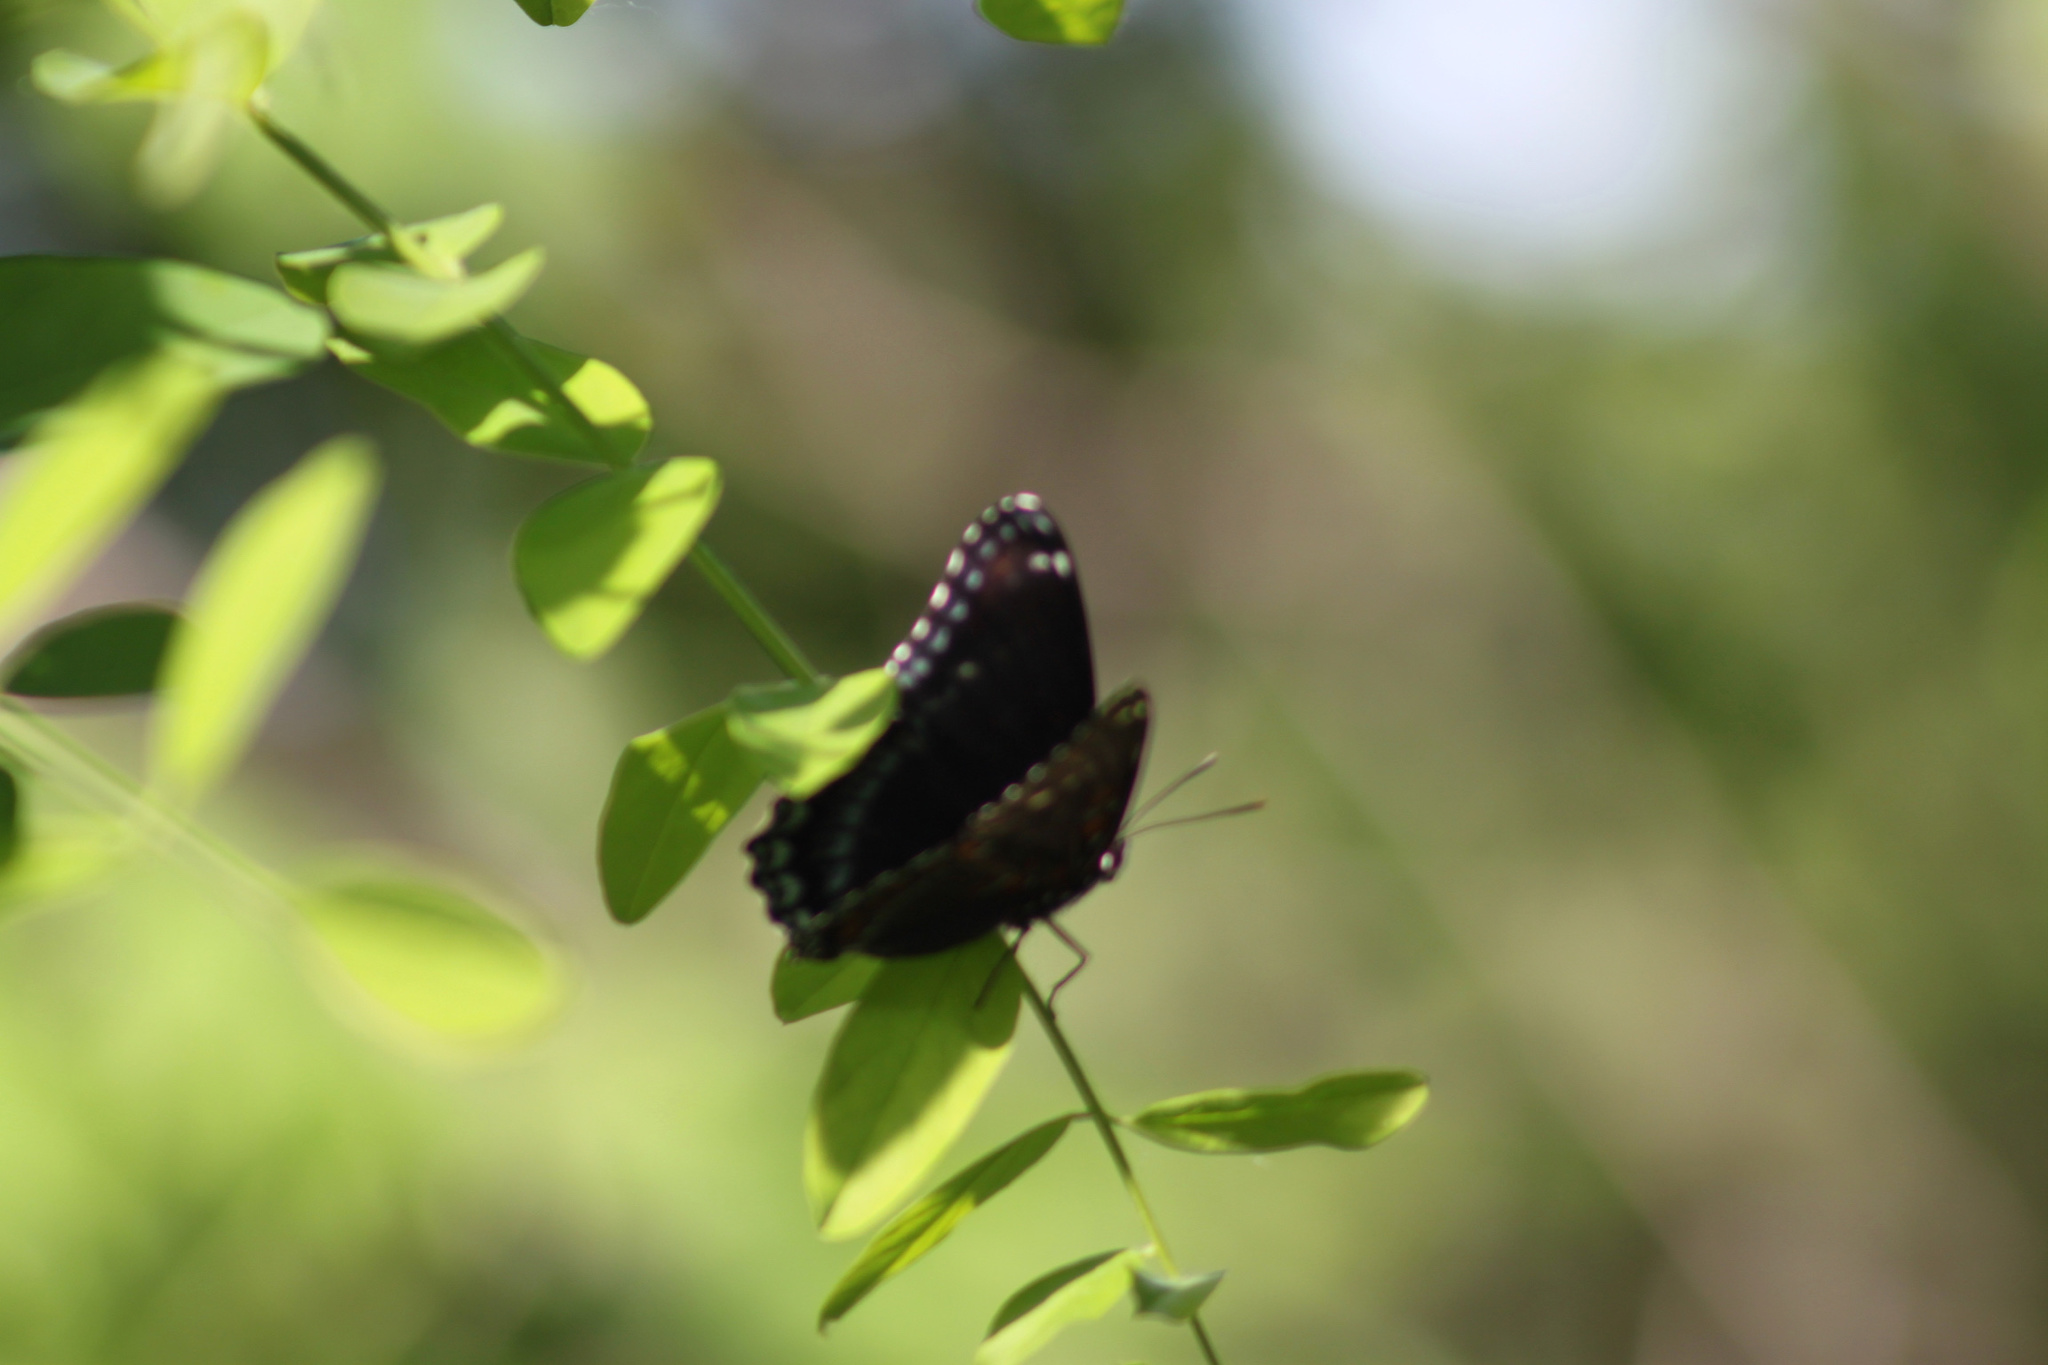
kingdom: Animalia
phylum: Arthropoda
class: Insecta
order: Lepidoptera
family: Nymphalidae
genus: Limenitis
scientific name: Limenitis astyanax
